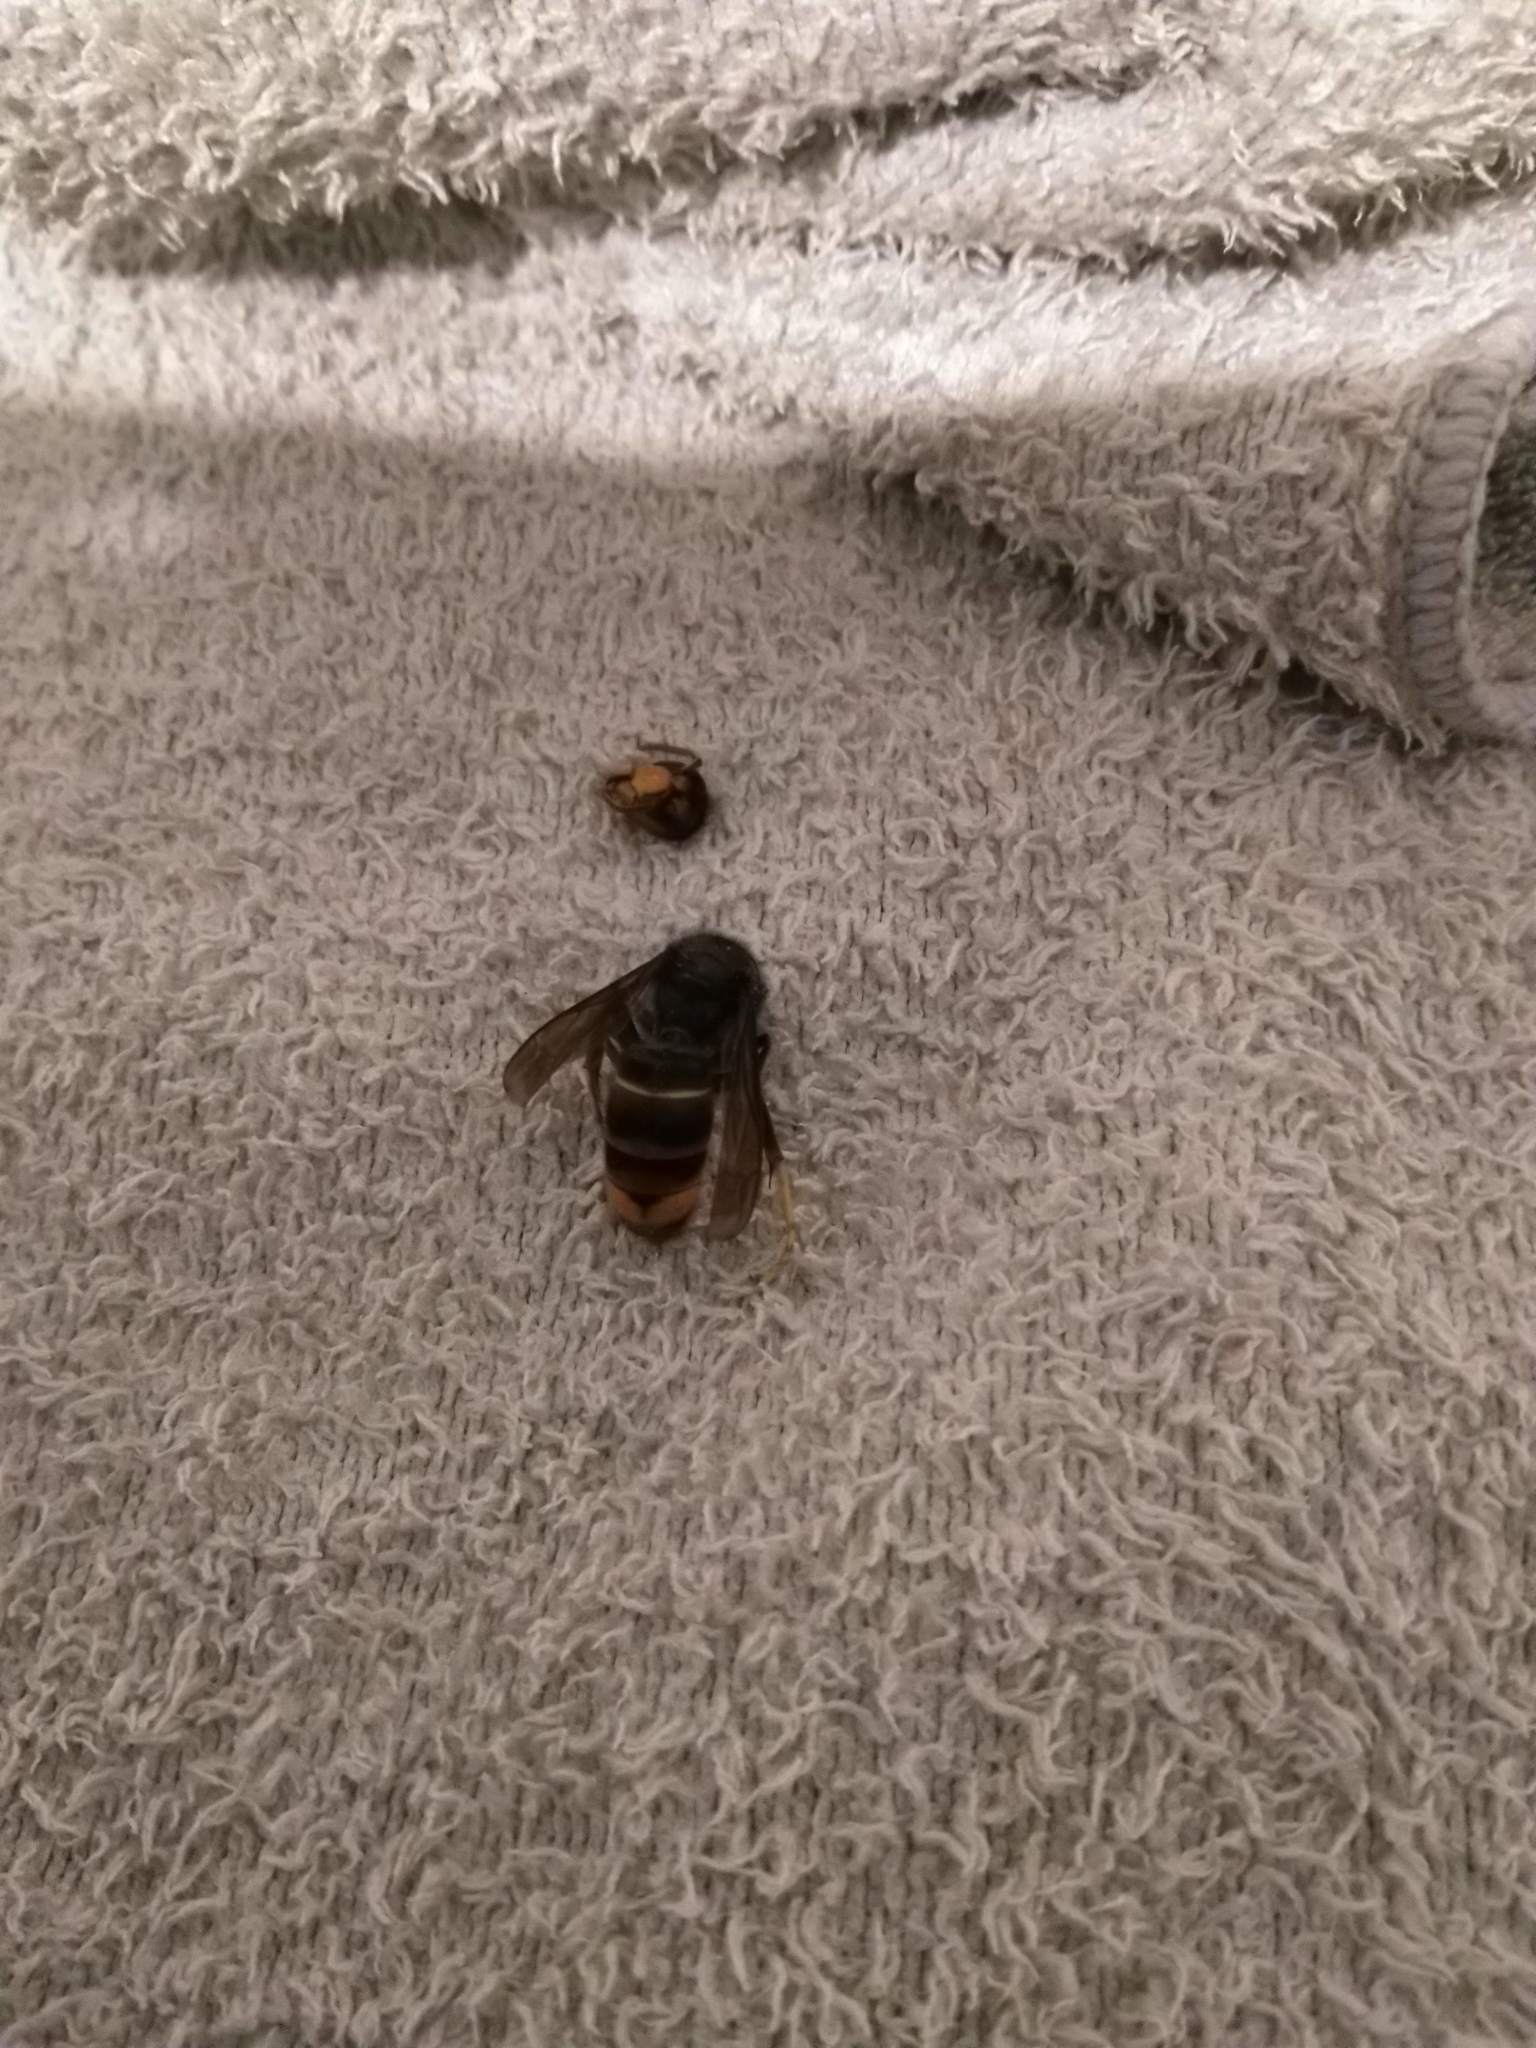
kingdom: Animalia
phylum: Arthropoda
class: Insecta
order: Hymenoptera
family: Vespidae
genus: Vespa
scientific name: Vespa velutina
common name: Asian hornet
